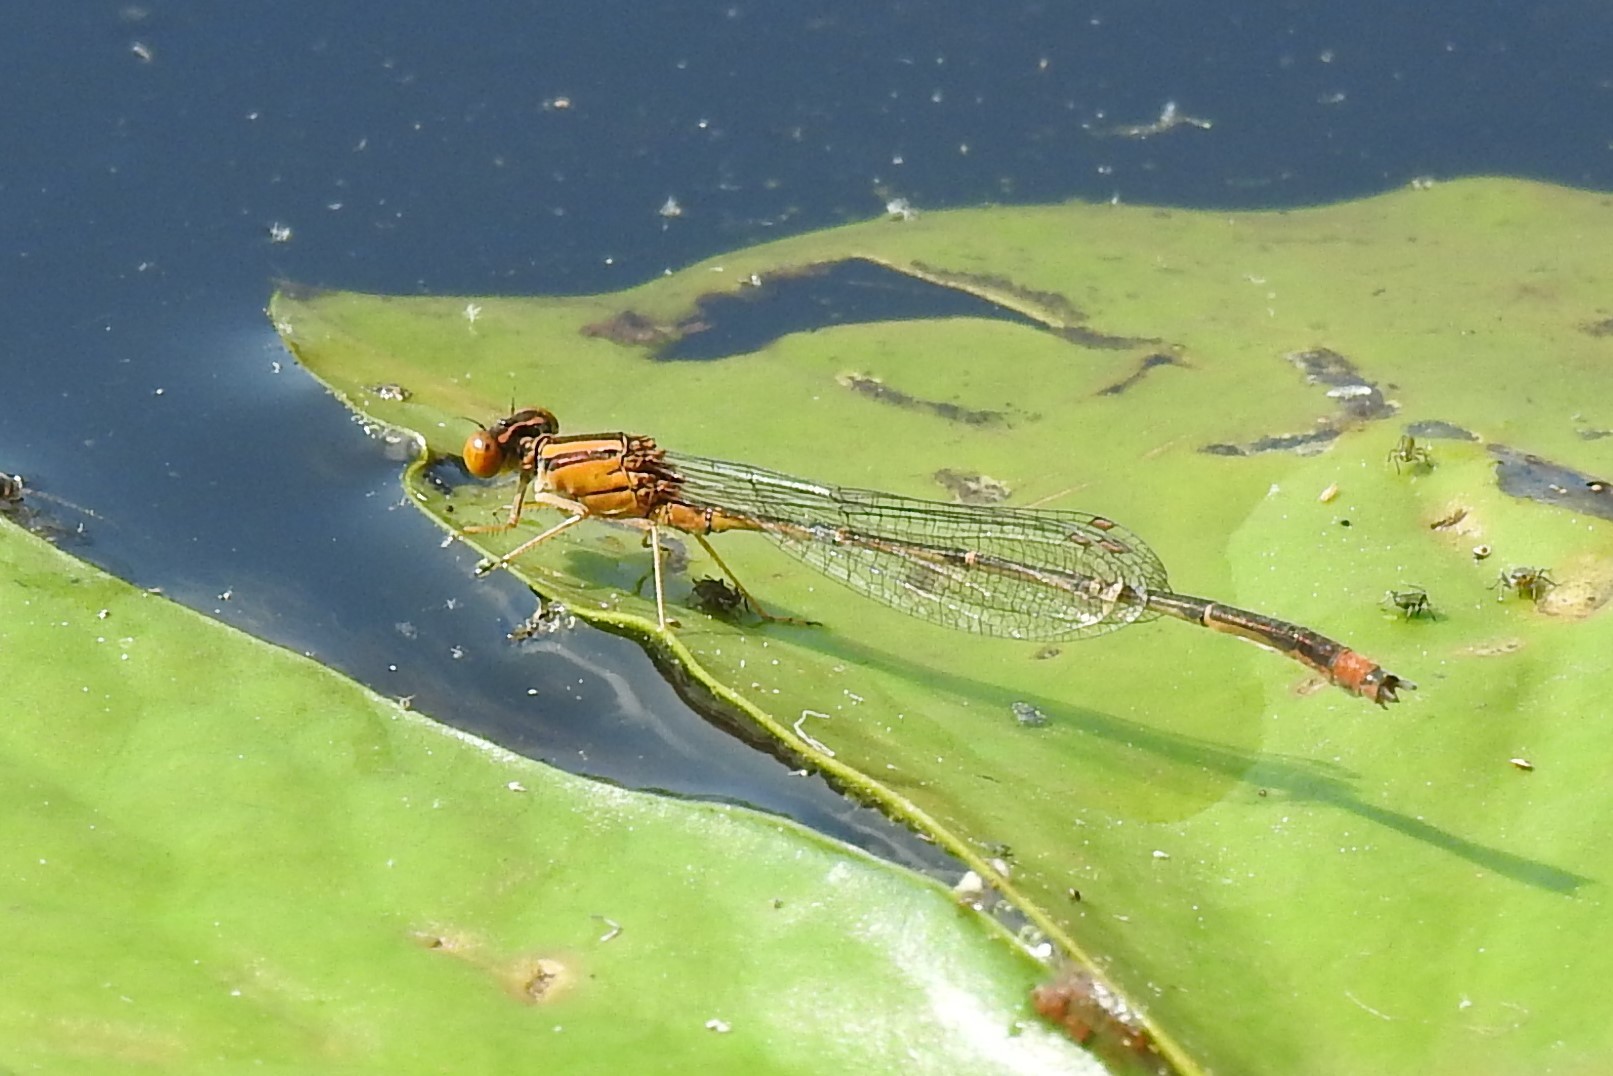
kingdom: Animalia
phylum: Arthropoda
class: Insecta
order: Odonata
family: Coenagrionidae
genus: Enallagma
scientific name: Enallagma signatum
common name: Orange bluet
